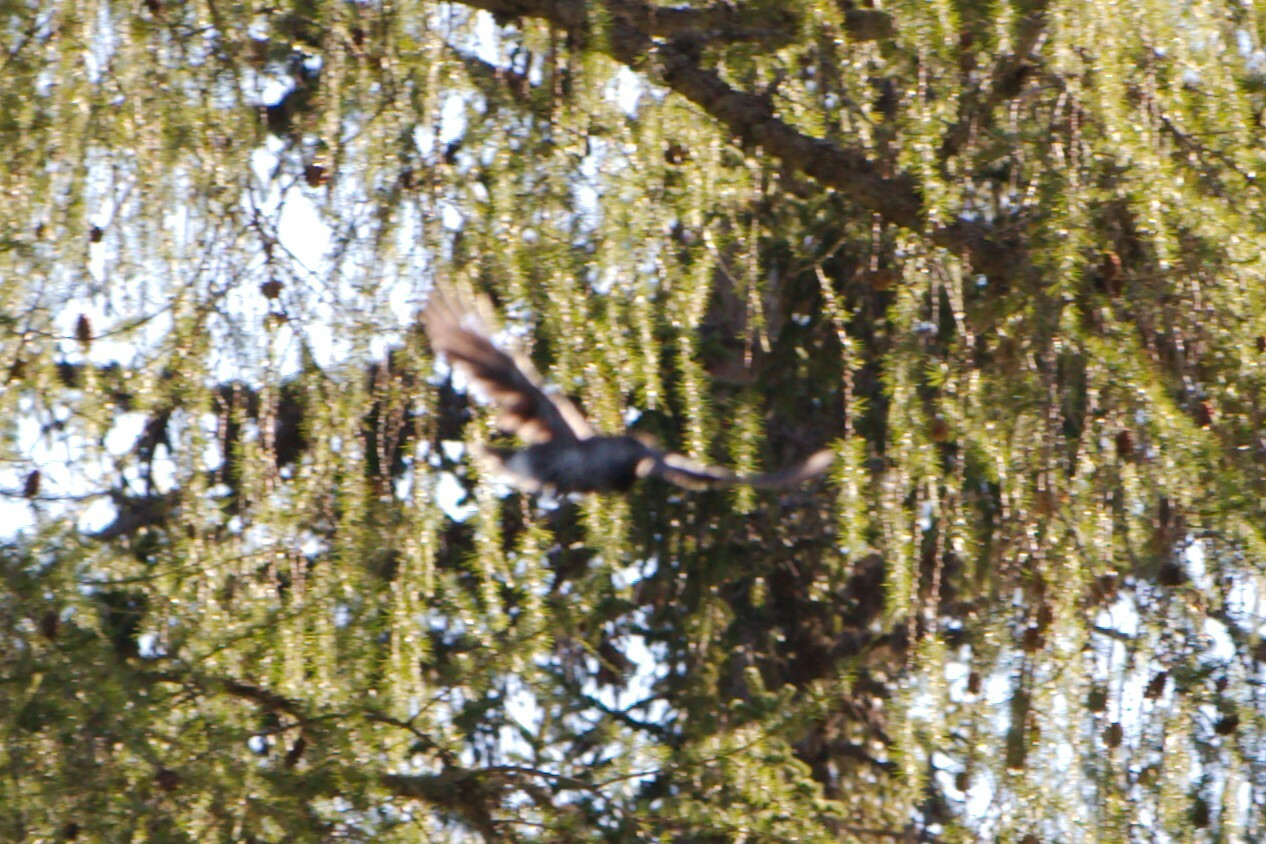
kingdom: Animalia
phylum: Chordata
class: Aves
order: Passeriformes
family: Corvidae
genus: Nucifraga
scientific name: Nucifraga caryocatactes
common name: Spotted nutcracker
